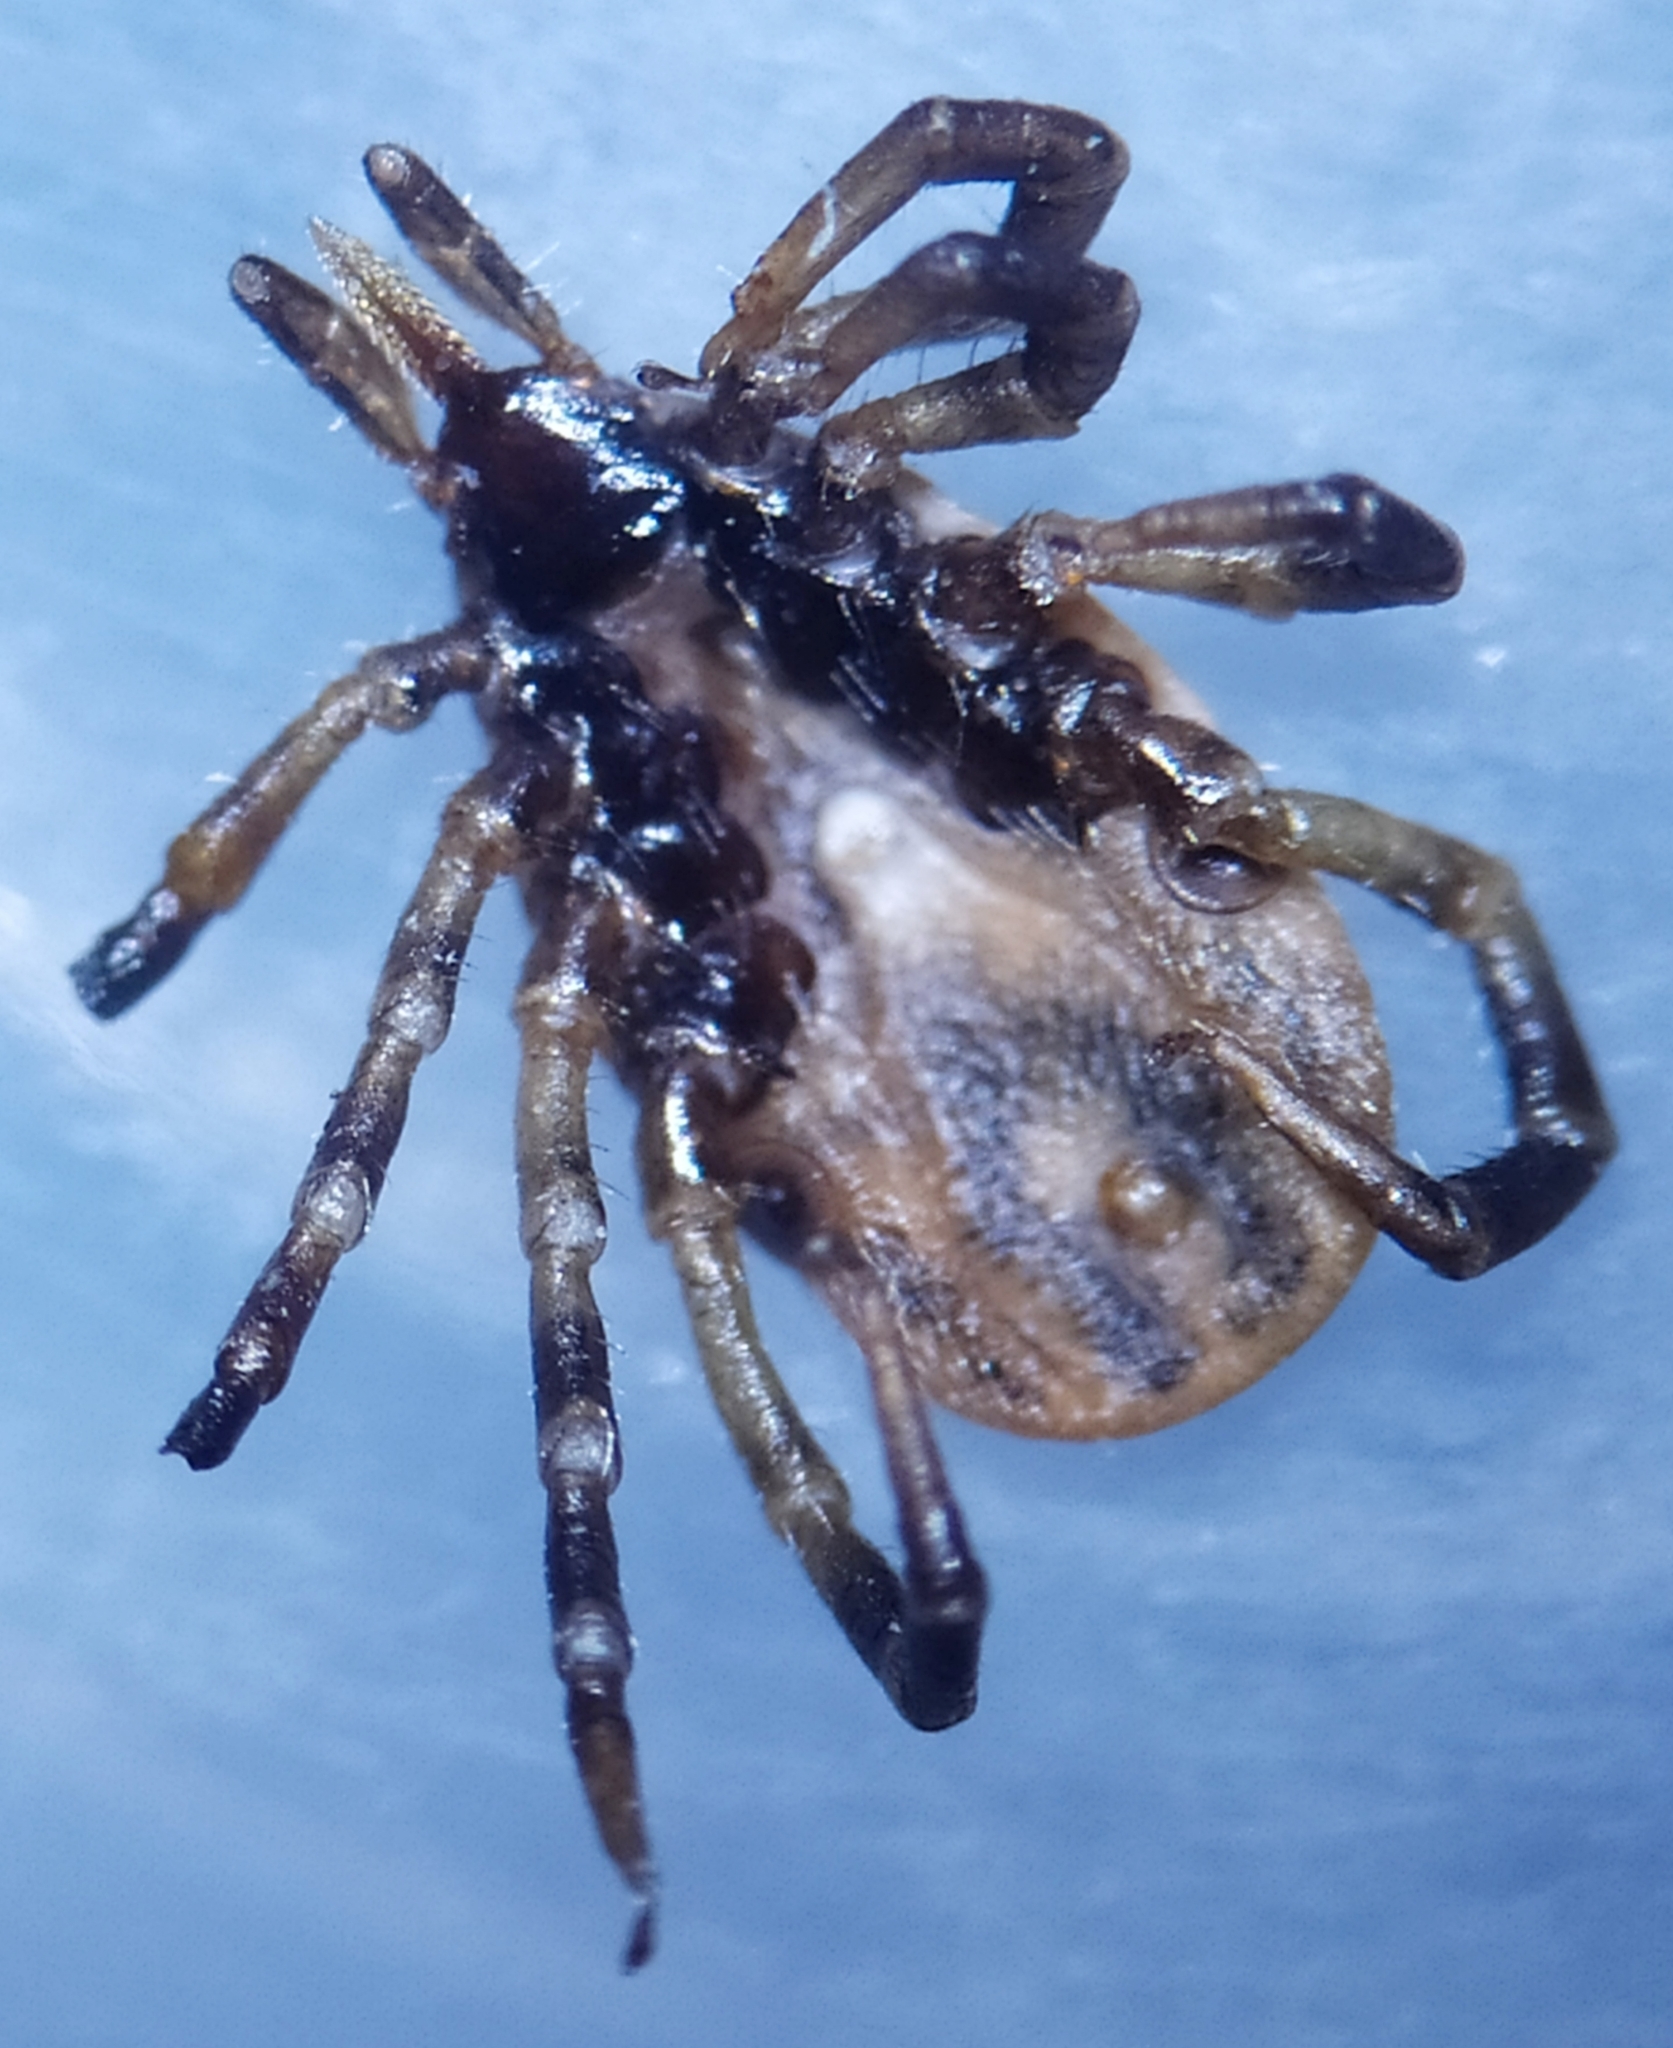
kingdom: Animalia
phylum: Arthropoda
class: Arachnida
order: Ixodida
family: Ixodidae
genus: Ixodes
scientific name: Ixodes frontalis
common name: Passerine tick
